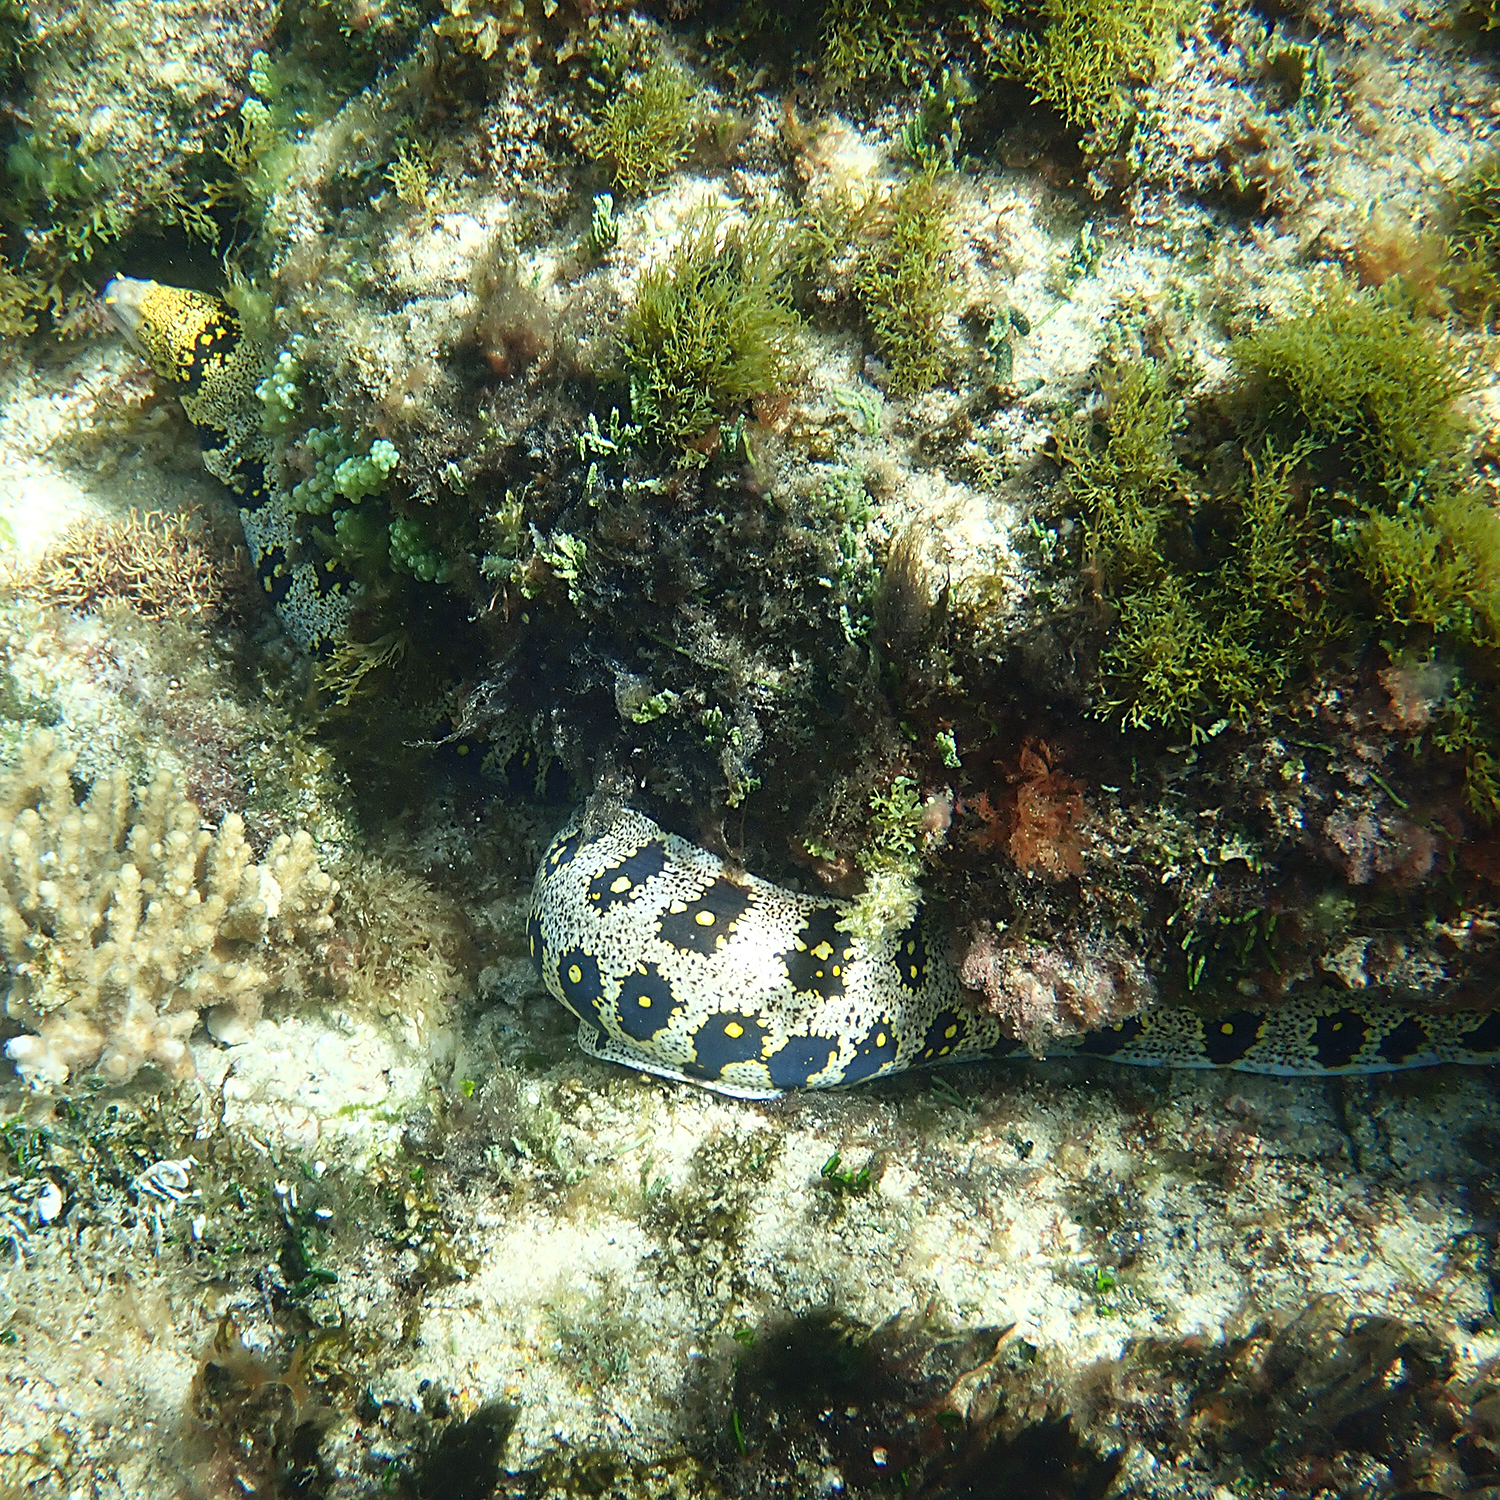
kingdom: Animalia
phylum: Chordata
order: Anguilliformes
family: Muraenidae
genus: Echidna
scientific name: Echidna nebulosa
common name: Snowflake moray
